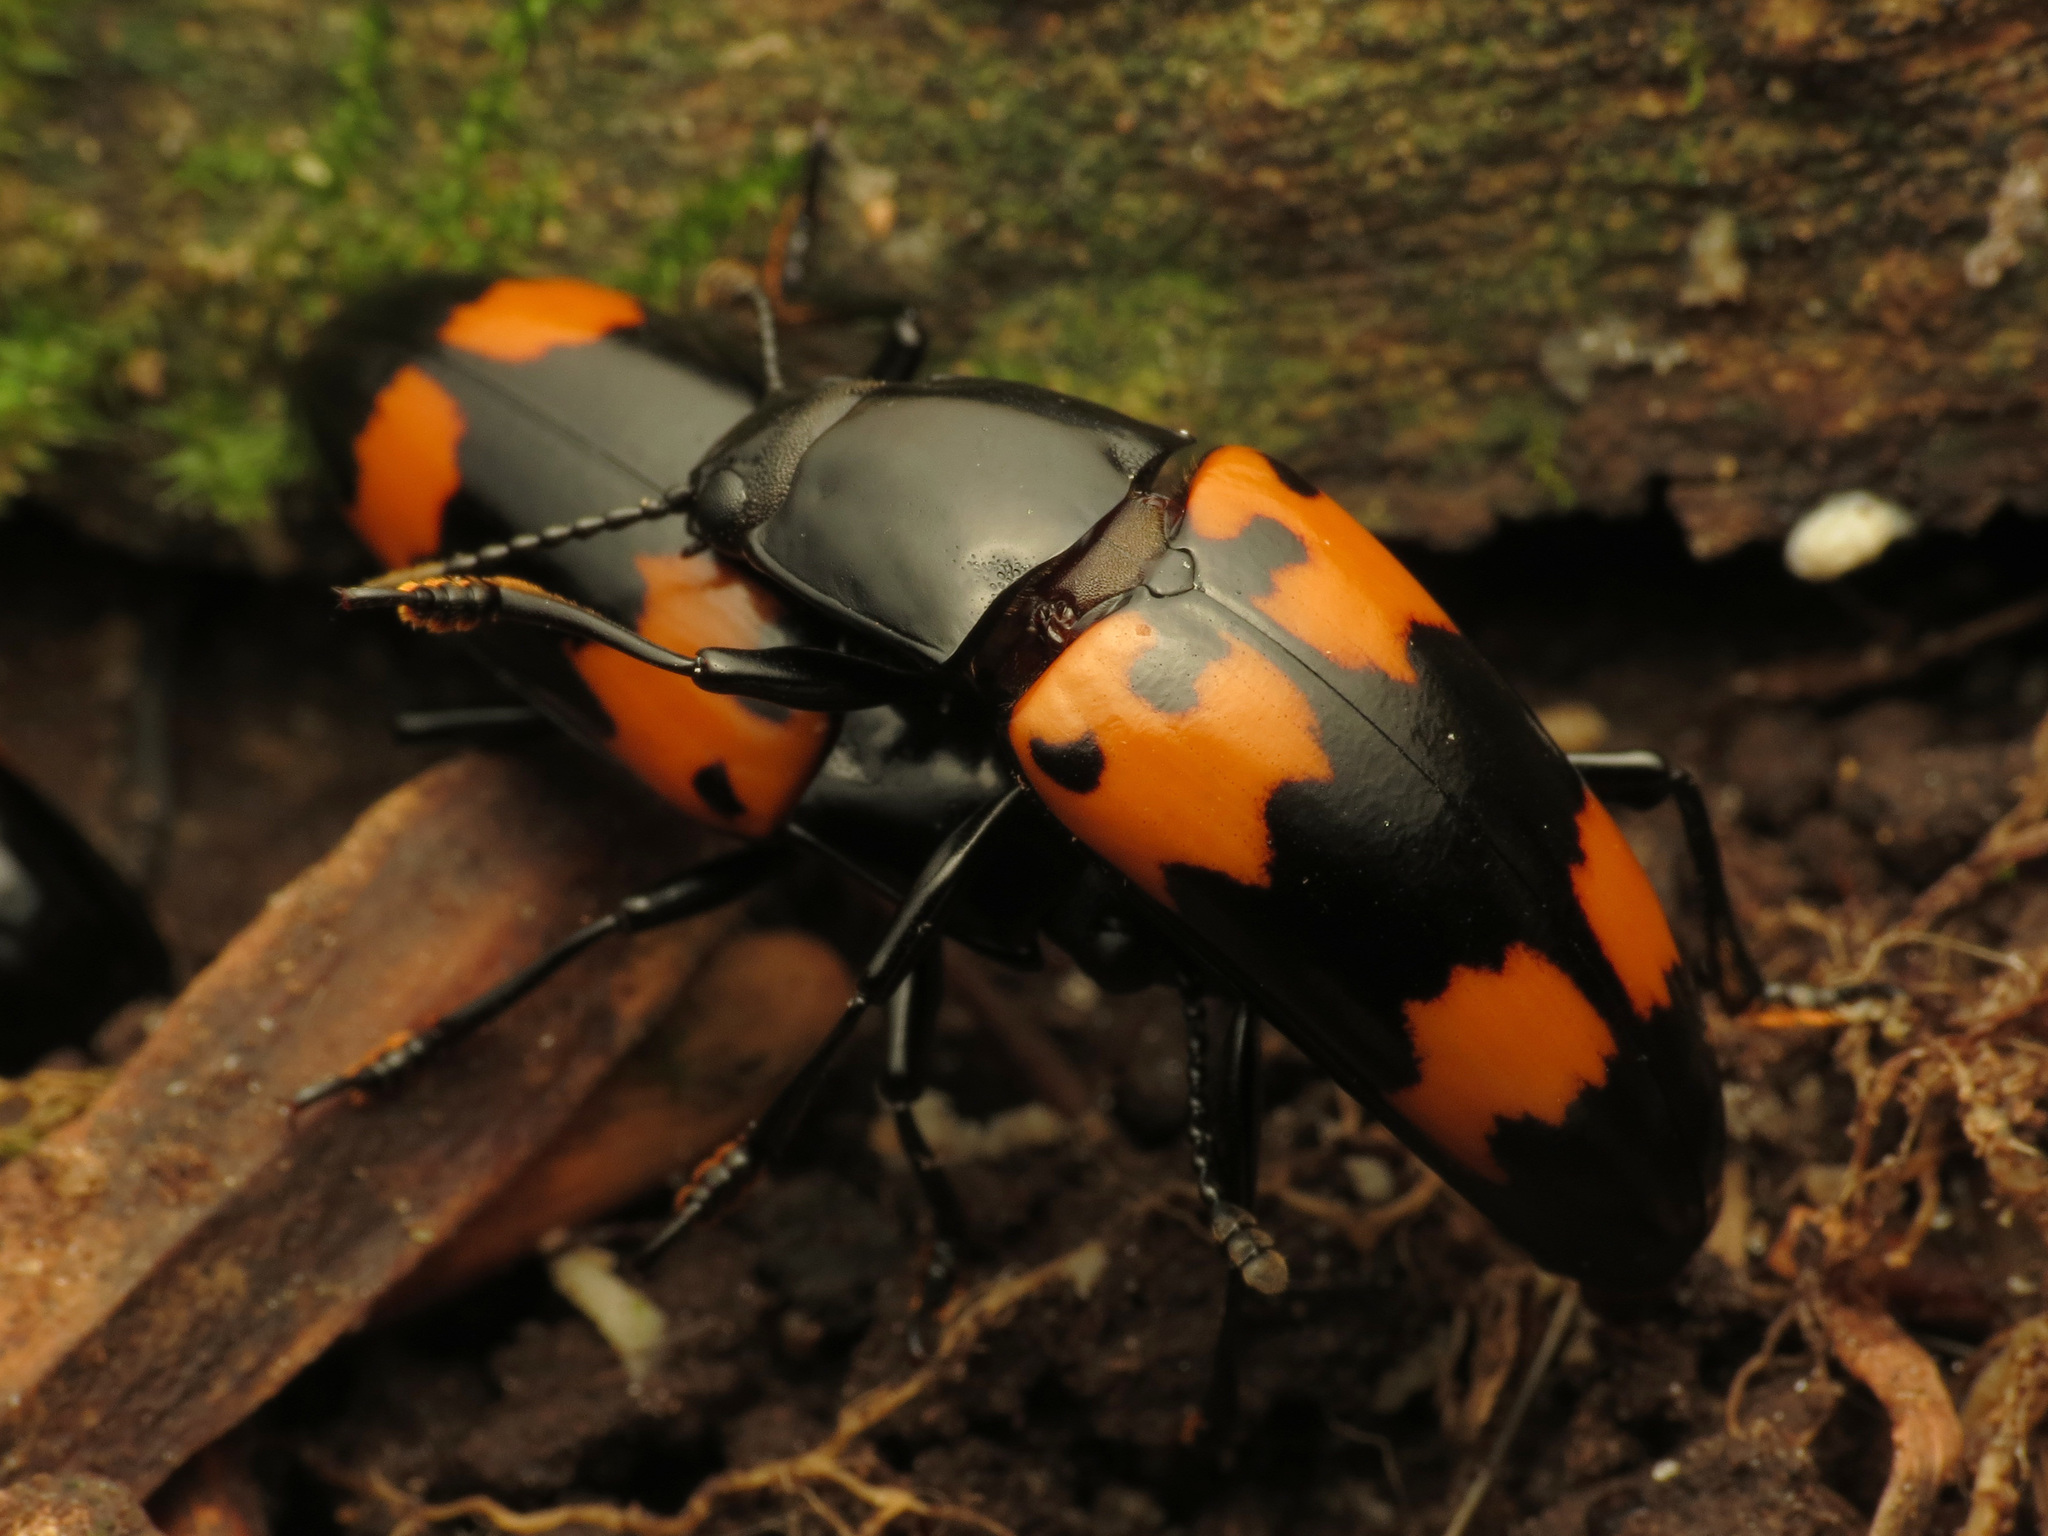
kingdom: Animalia
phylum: Arthropoda
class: Insecta
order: Coleoptera
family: Erotylidae
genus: Megalodacne
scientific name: Megalodacne heros
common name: Pleasing fungus beetle
